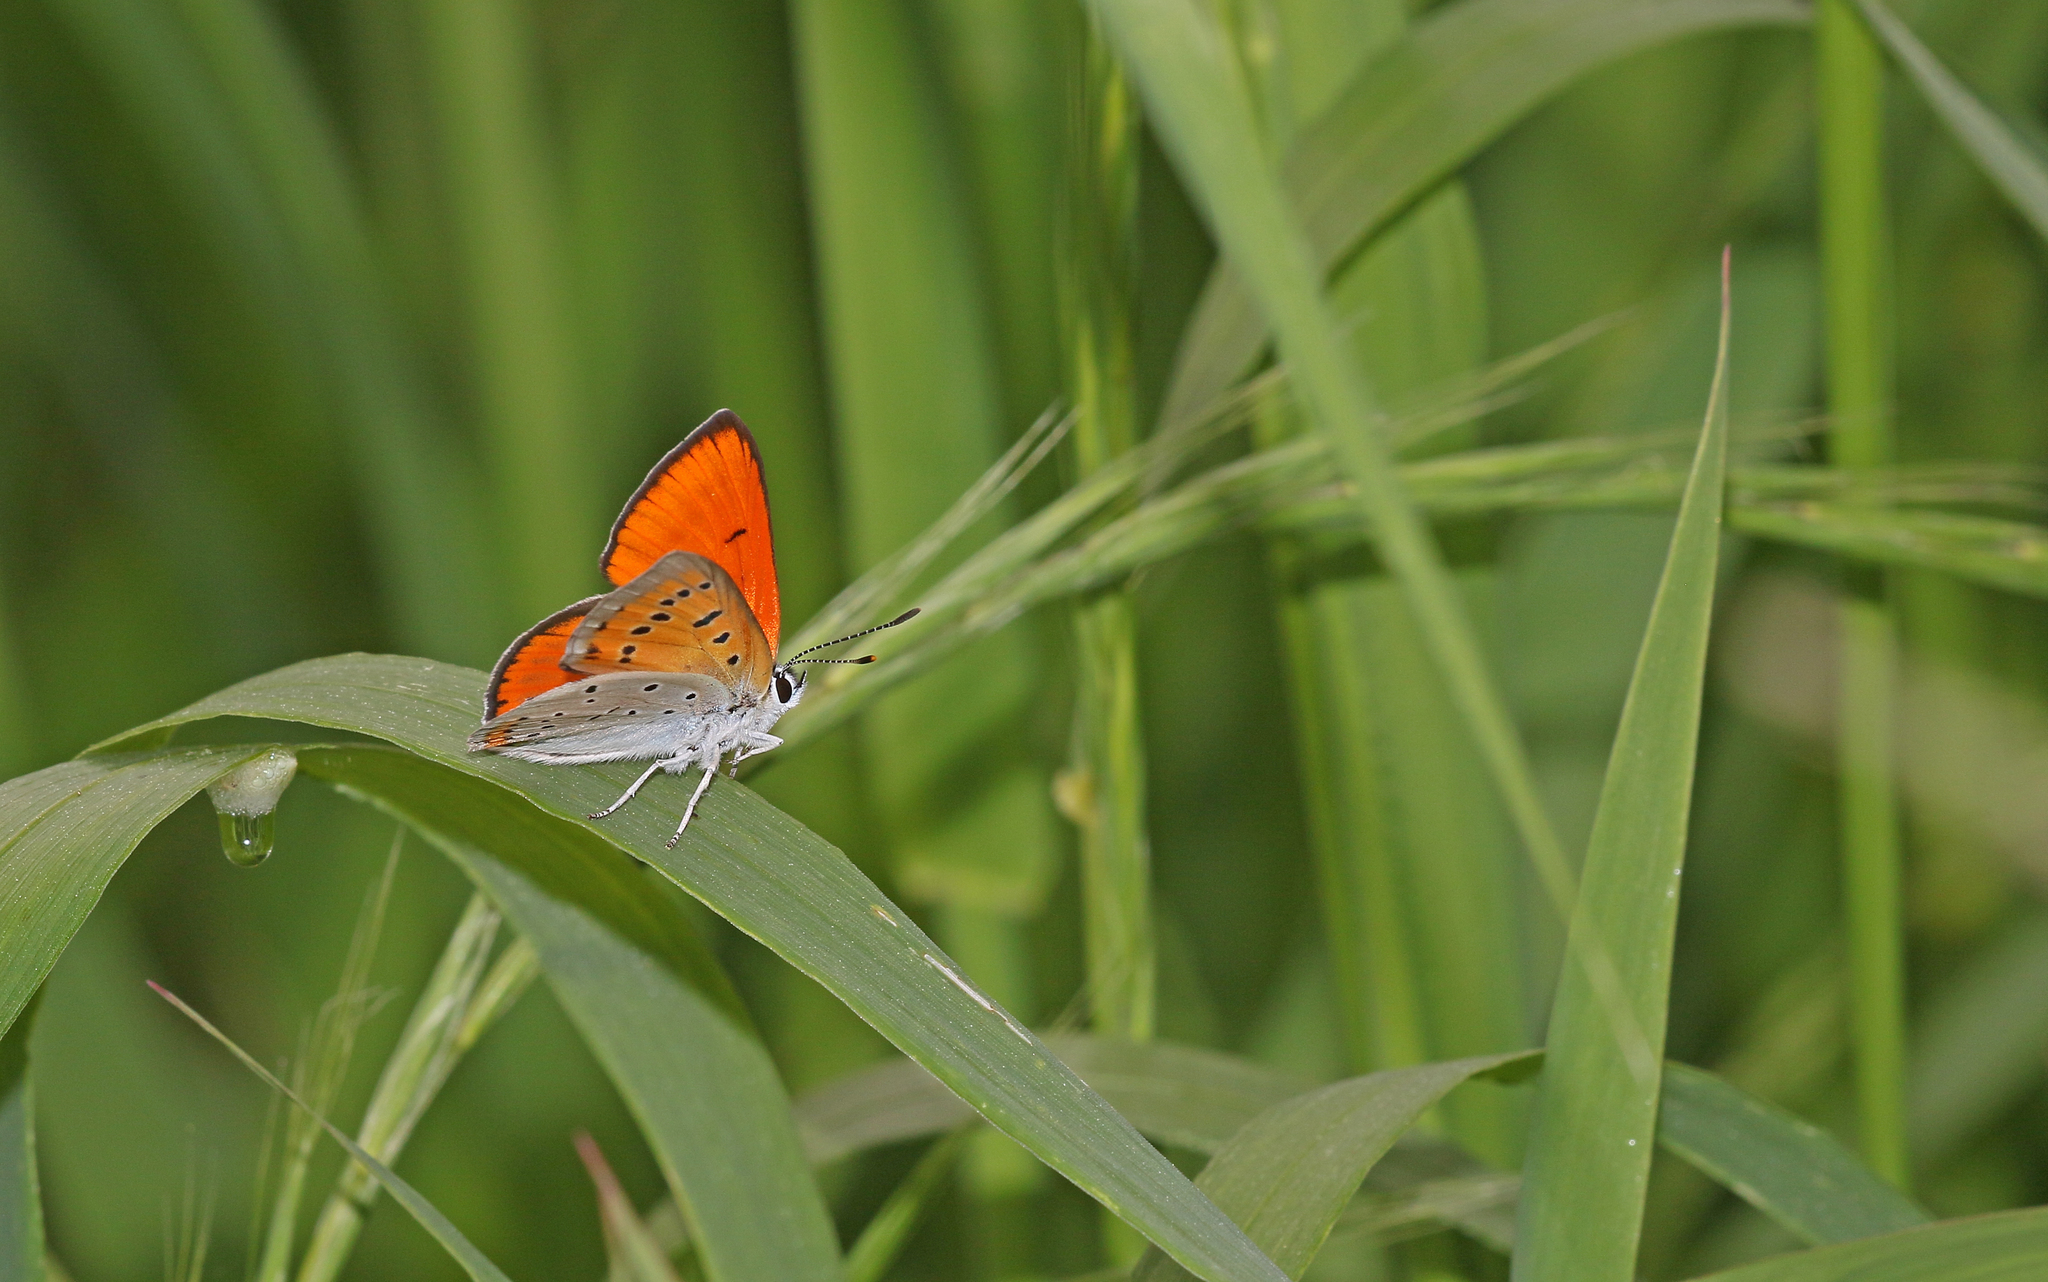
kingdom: Animalia
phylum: Arthropoda
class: Insecta
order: Lepidoptera
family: Lycaenidae
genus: Lycaena
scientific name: Lycaena dispar
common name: Large copper
